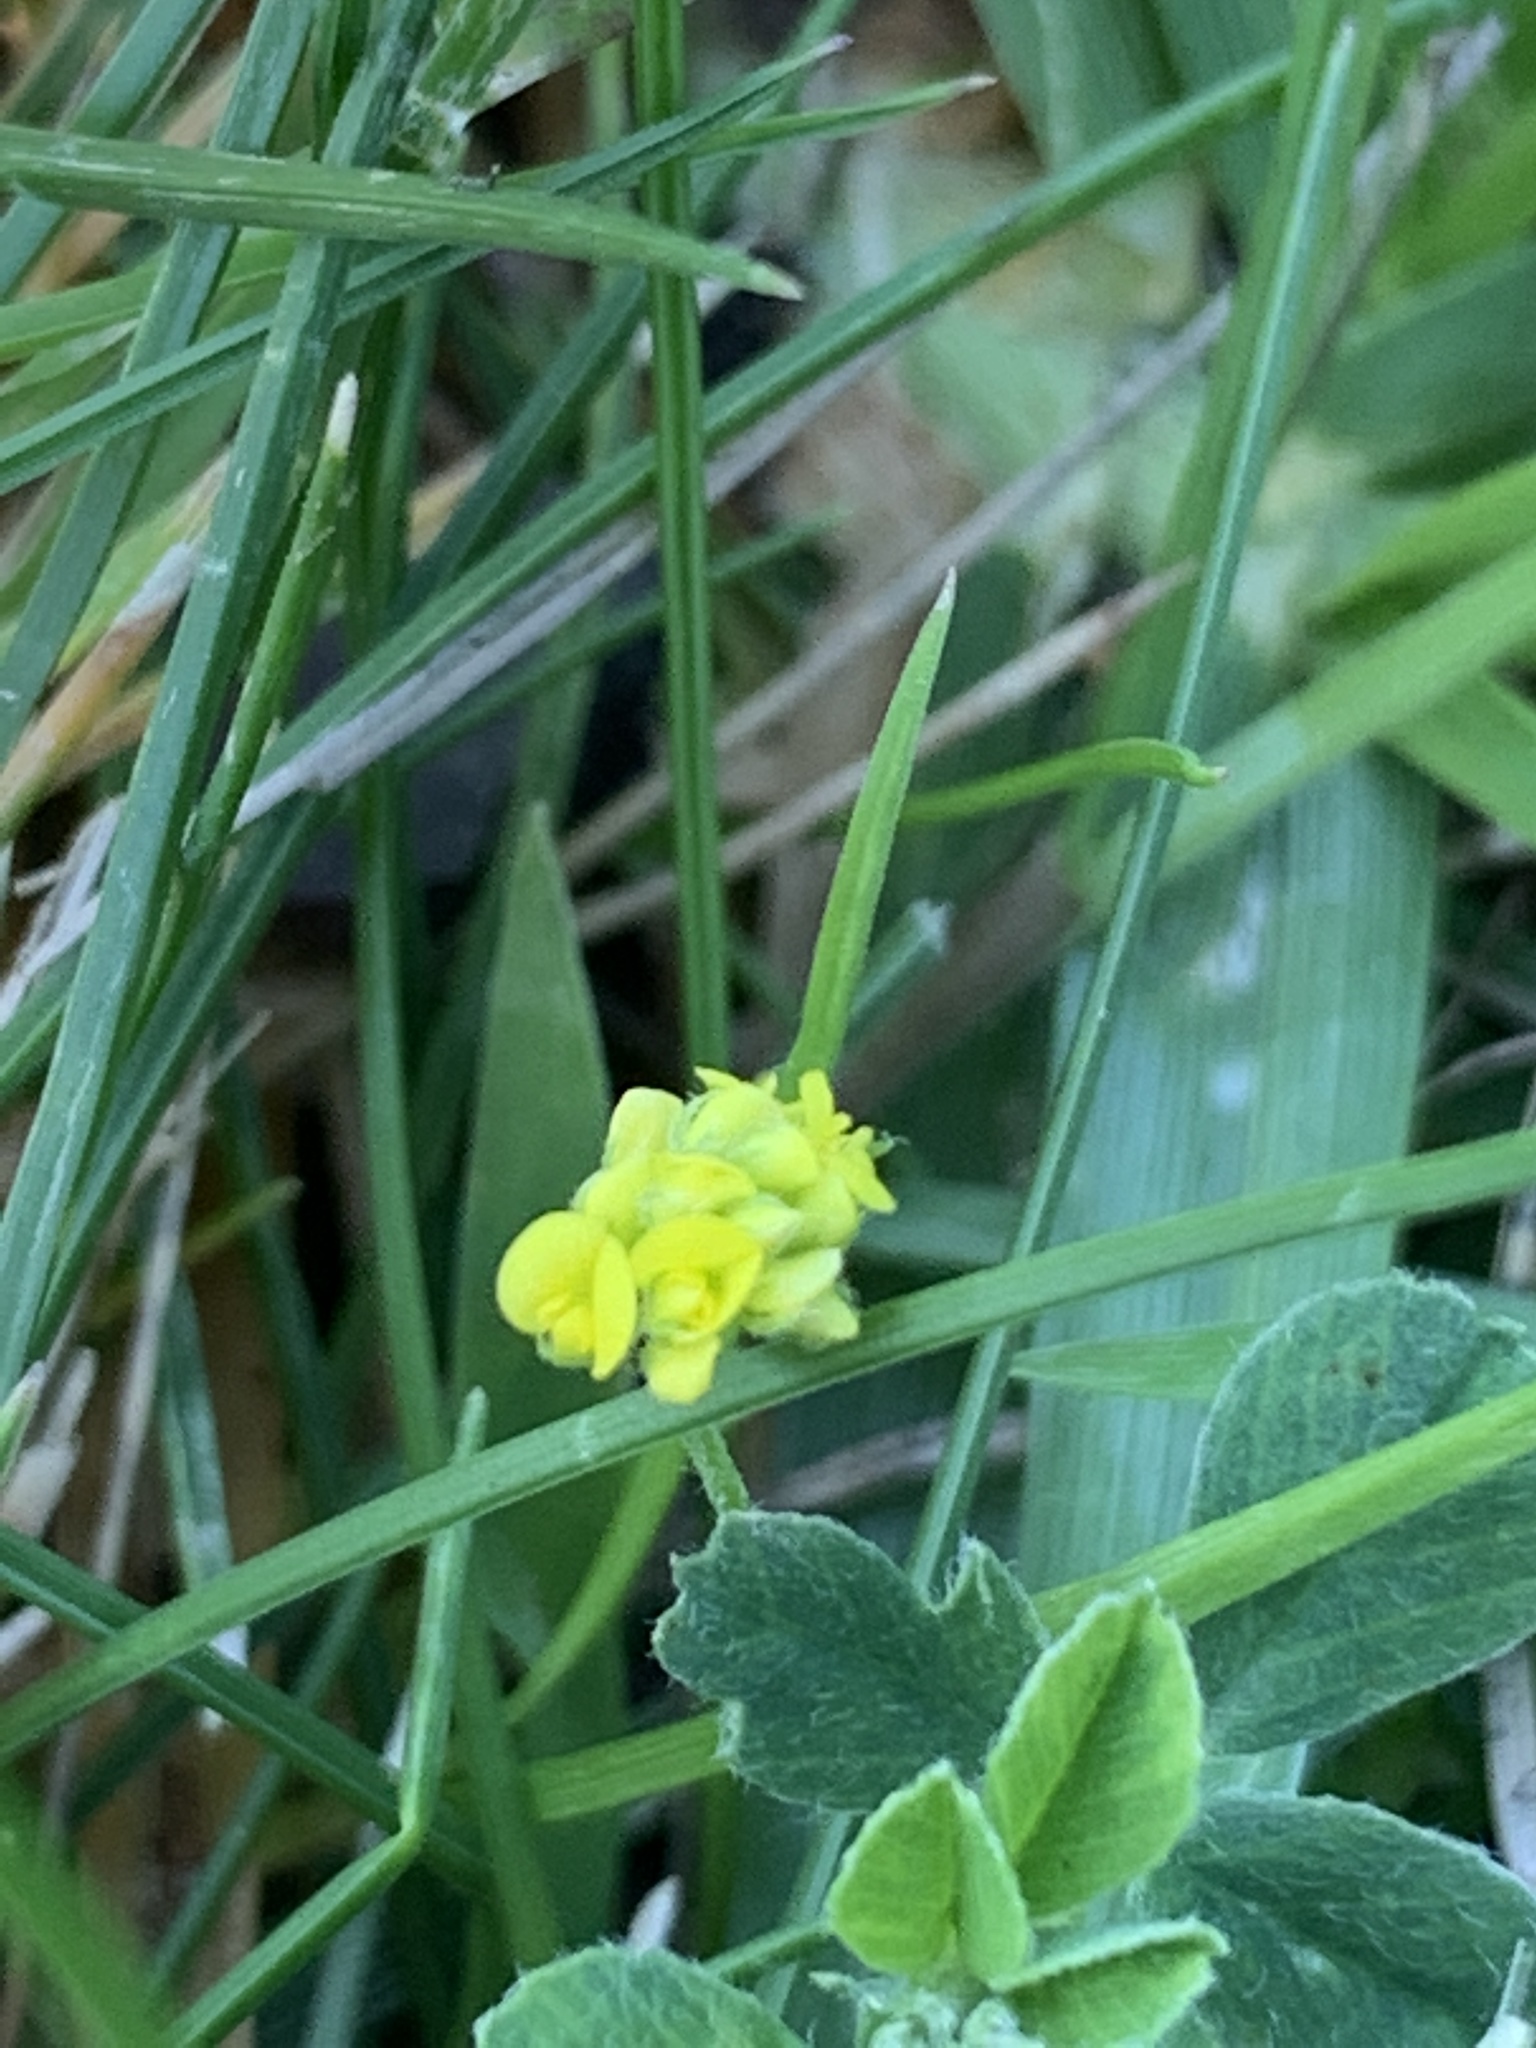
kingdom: Plantae
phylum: Tracheophyta
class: Magnoliopsida
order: Fabales
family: Fabaceae
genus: Medicago
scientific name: Medicago lupulina
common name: Black medick
